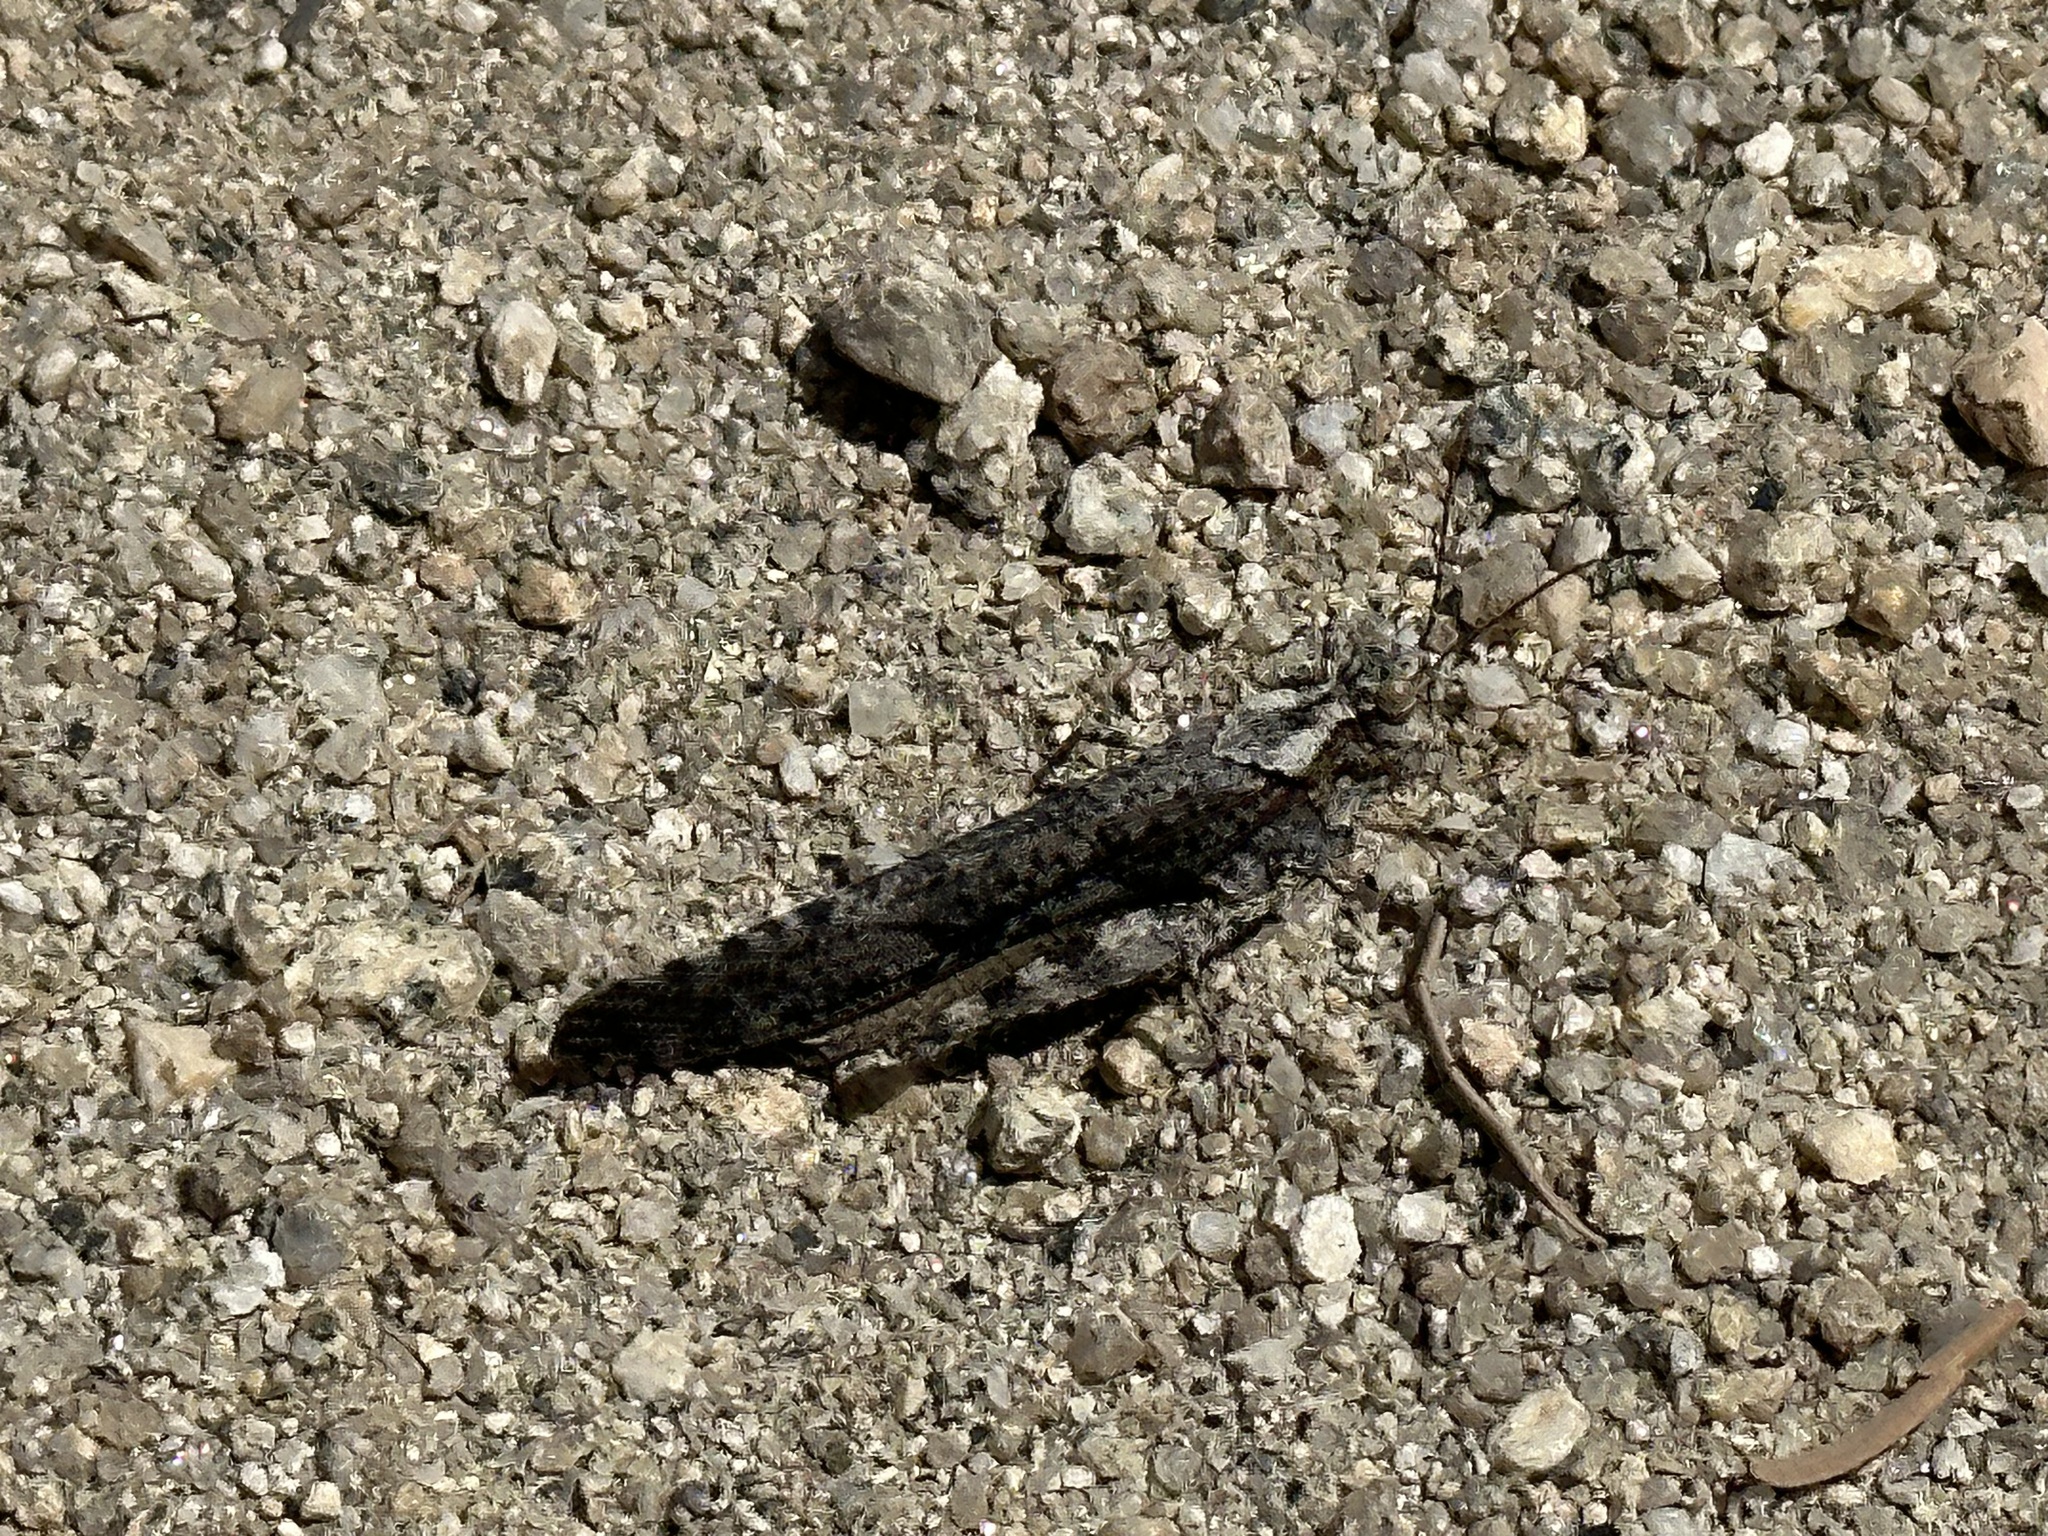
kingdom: Animalia
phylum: Arthropoda
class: Insecta
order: Orthoptera
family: Acrididae
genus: Trimerotropis
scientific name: Trimerotropis verruculata
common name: Crackling forest grasshopper
